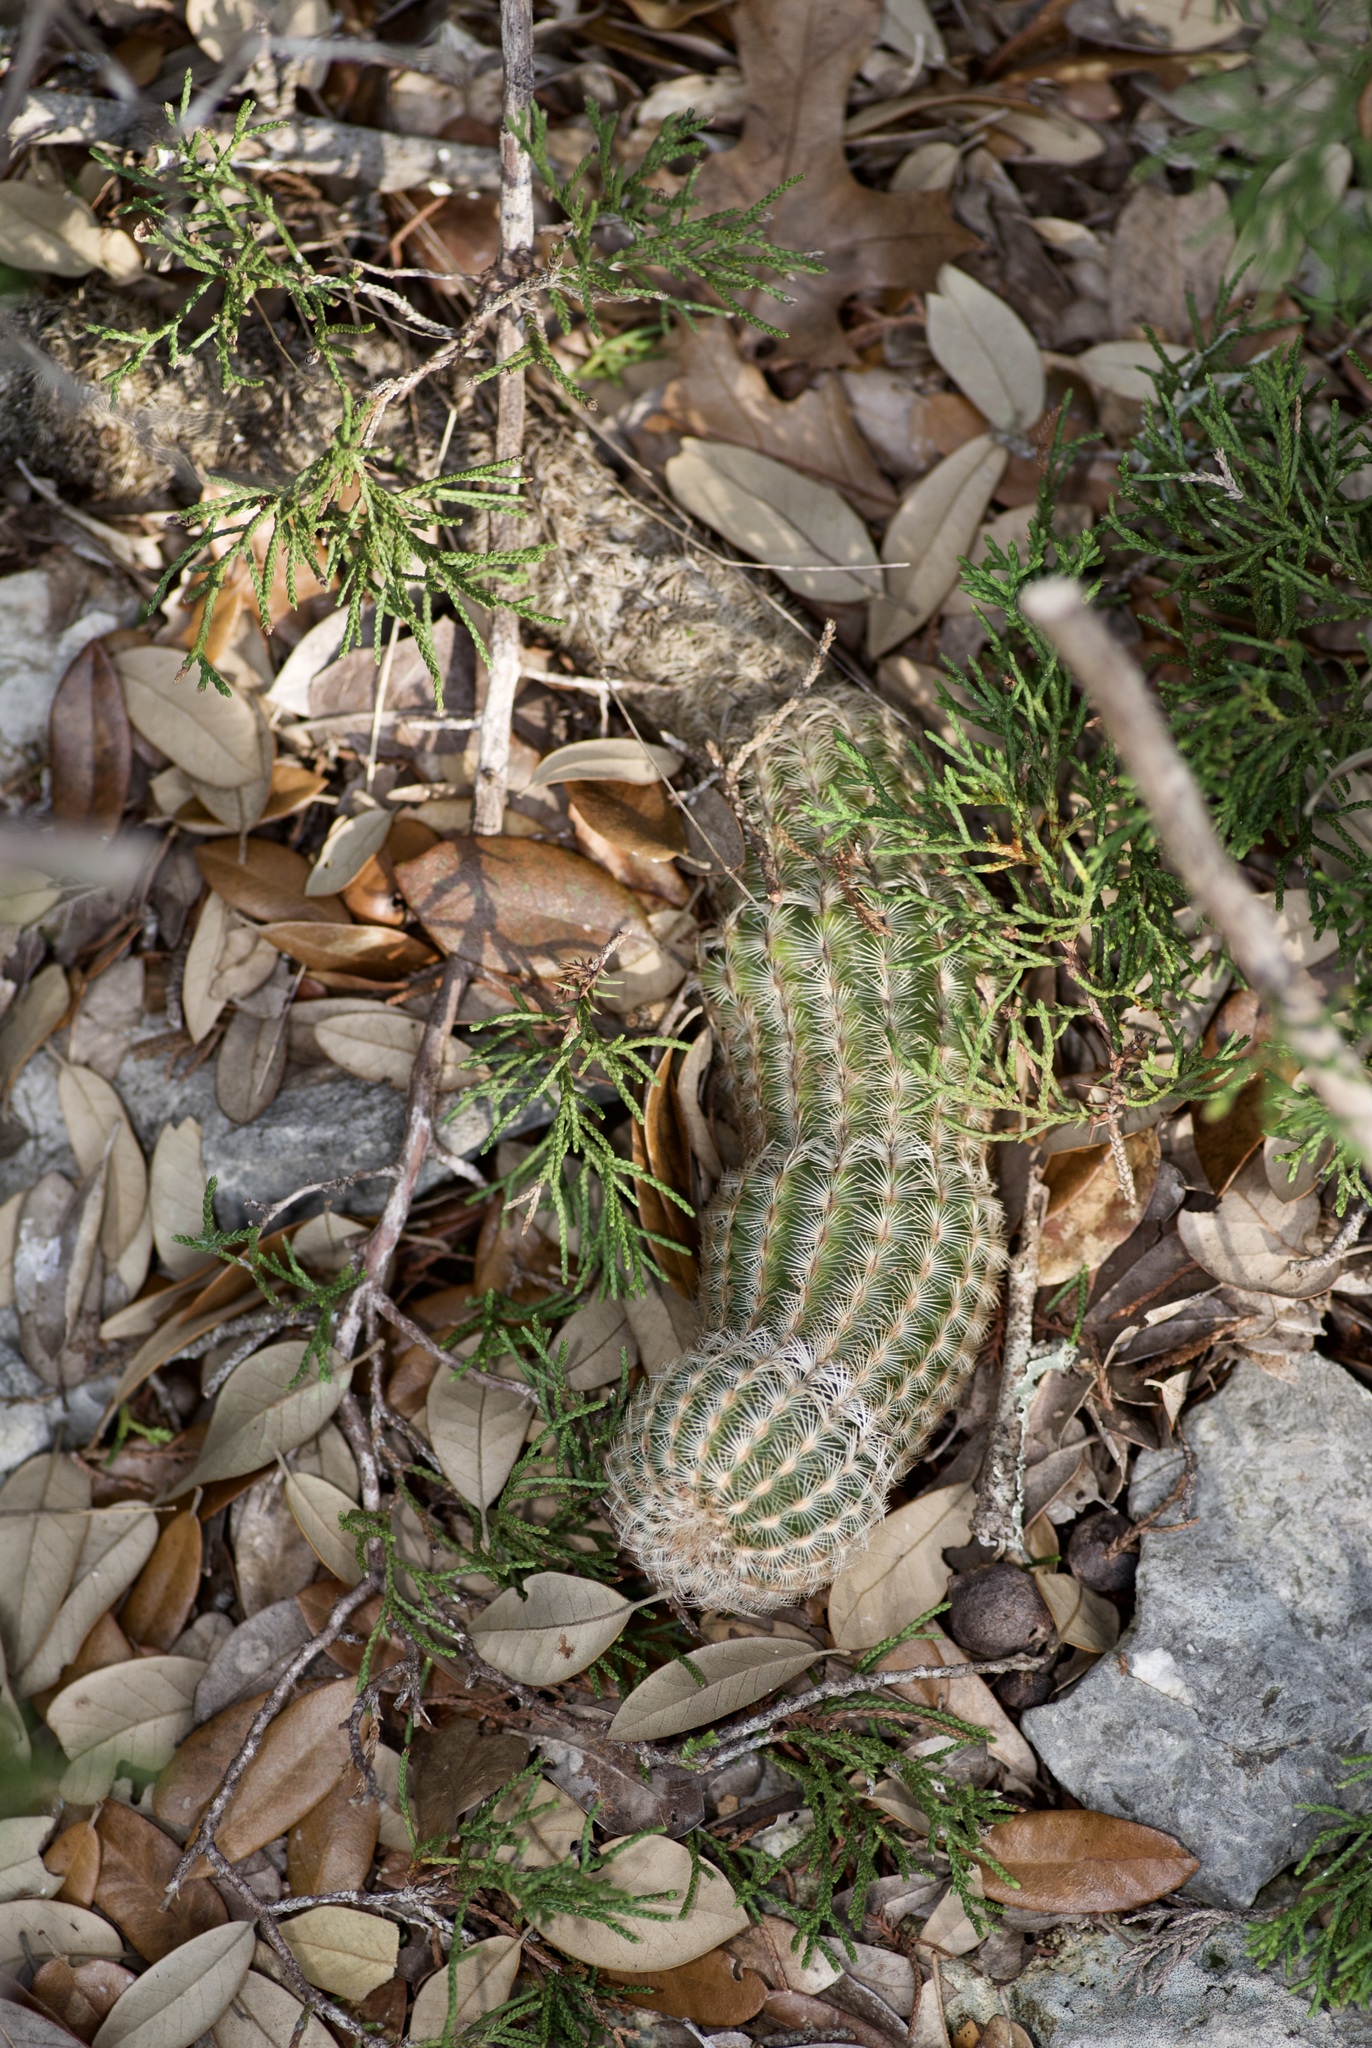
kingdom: Plantae
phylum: Tracheophyta
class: Magnoliopsida
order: Caryophyllales
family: Cactaceae
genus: Echinocereus
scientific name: Echinocereus reichenbachii
